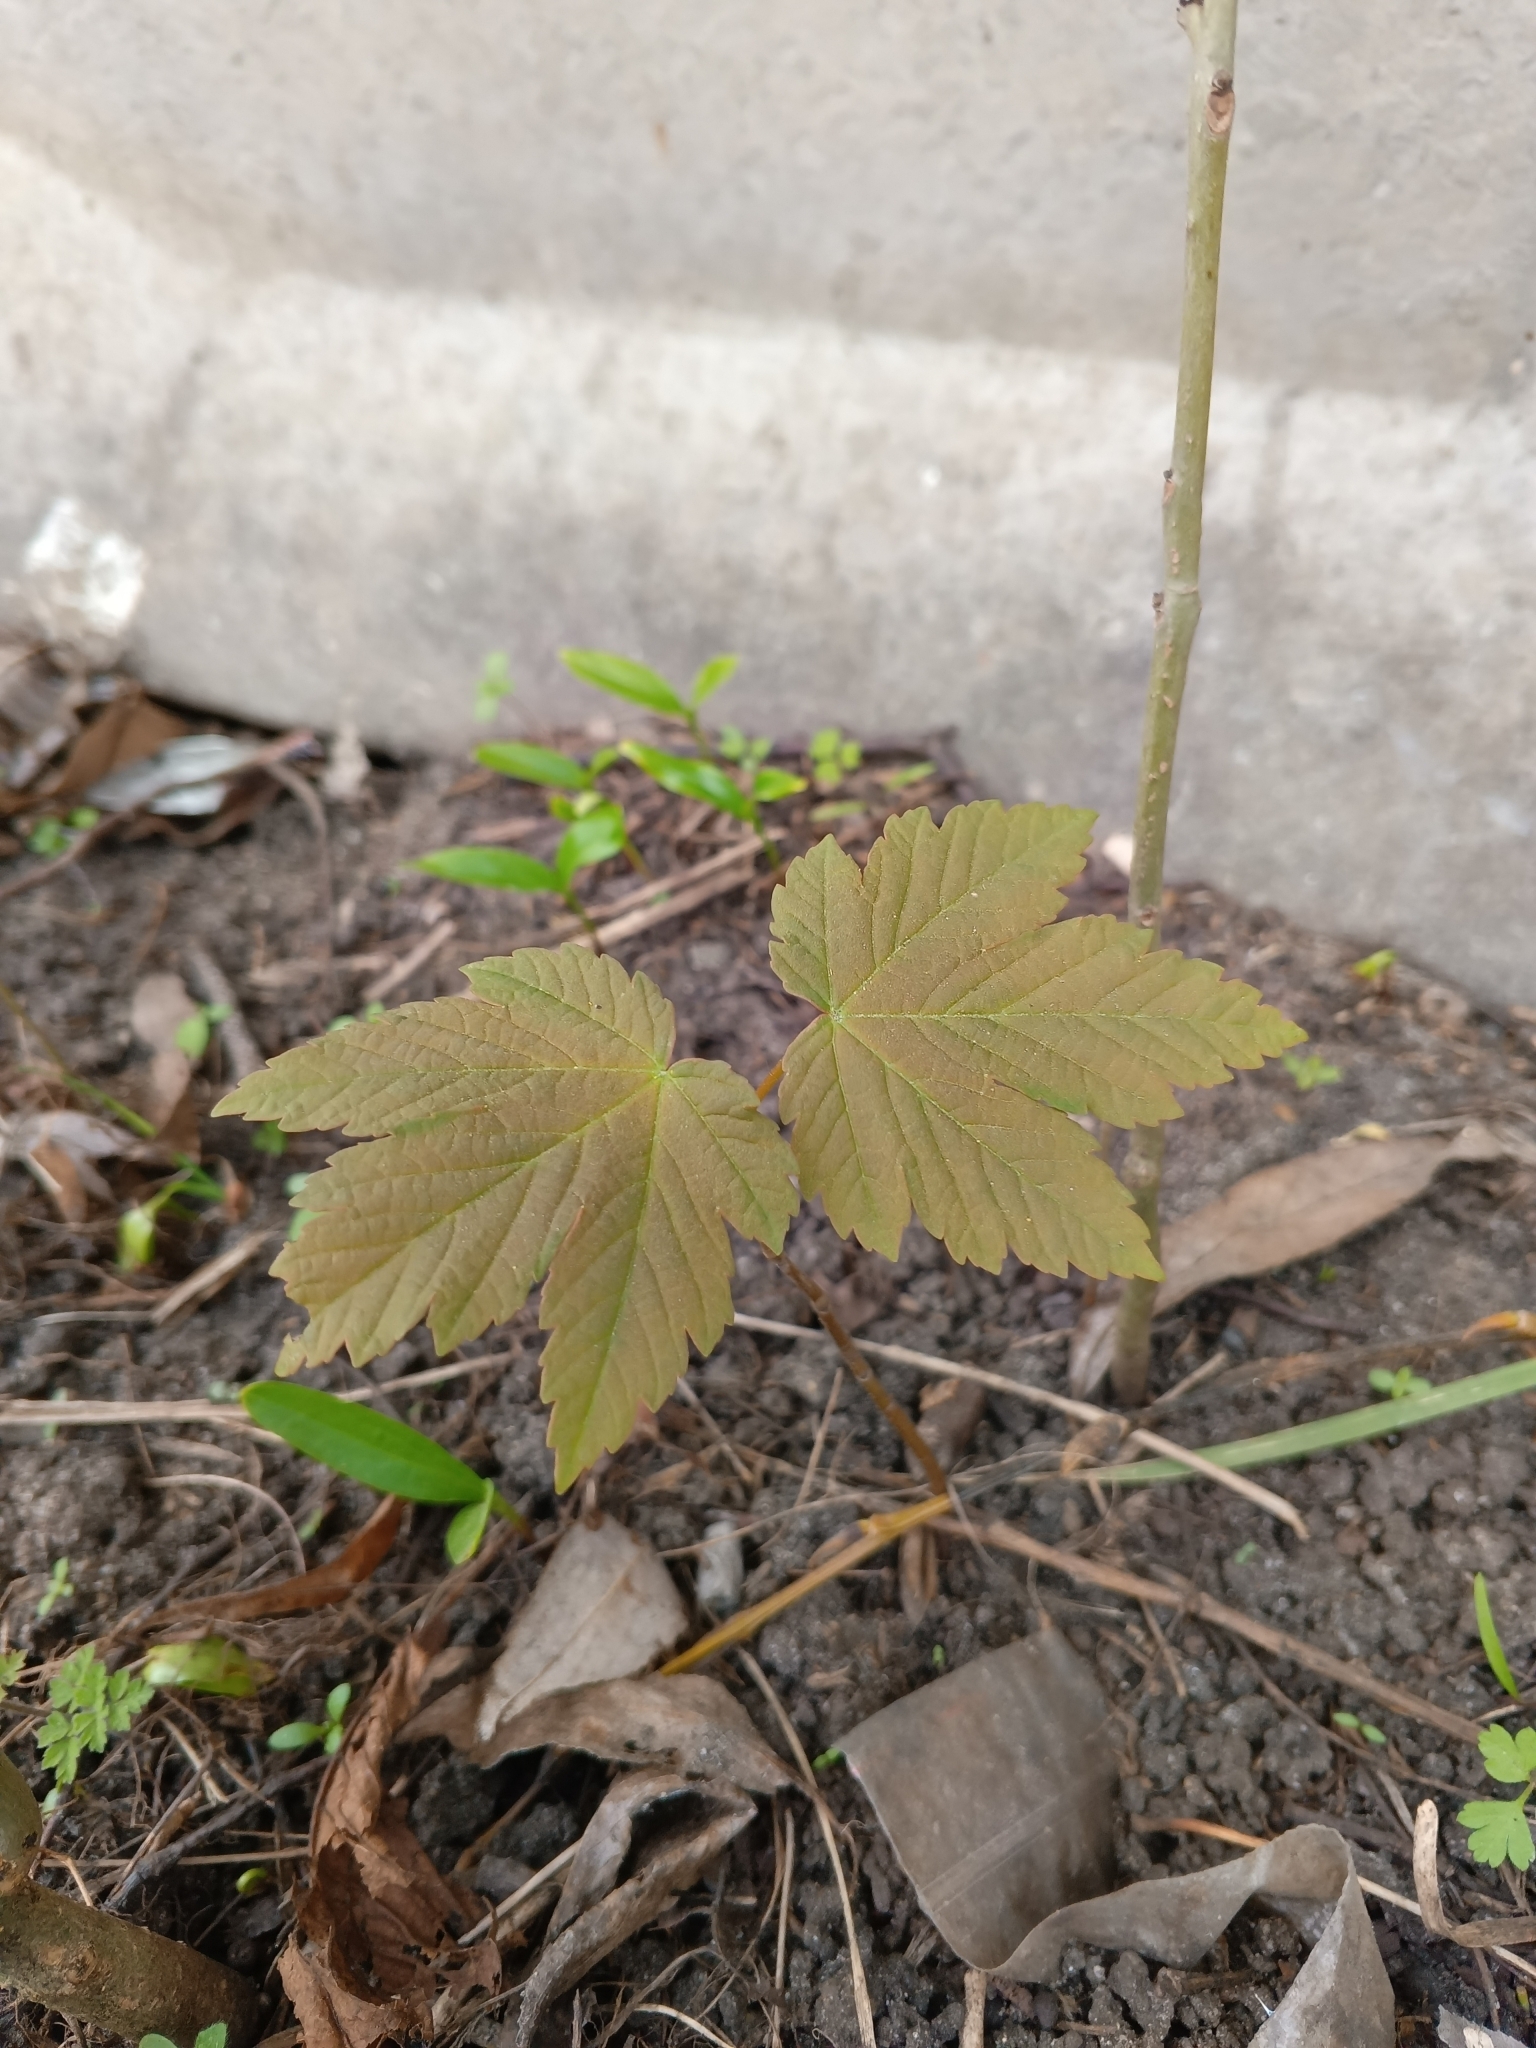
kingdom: Plantae
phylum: Tracheophyta
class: Magnoliopsida
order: Sapindales
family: Sapindaceae
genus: Acer
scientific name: Acer pseudoplatanus
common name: Sycamore
